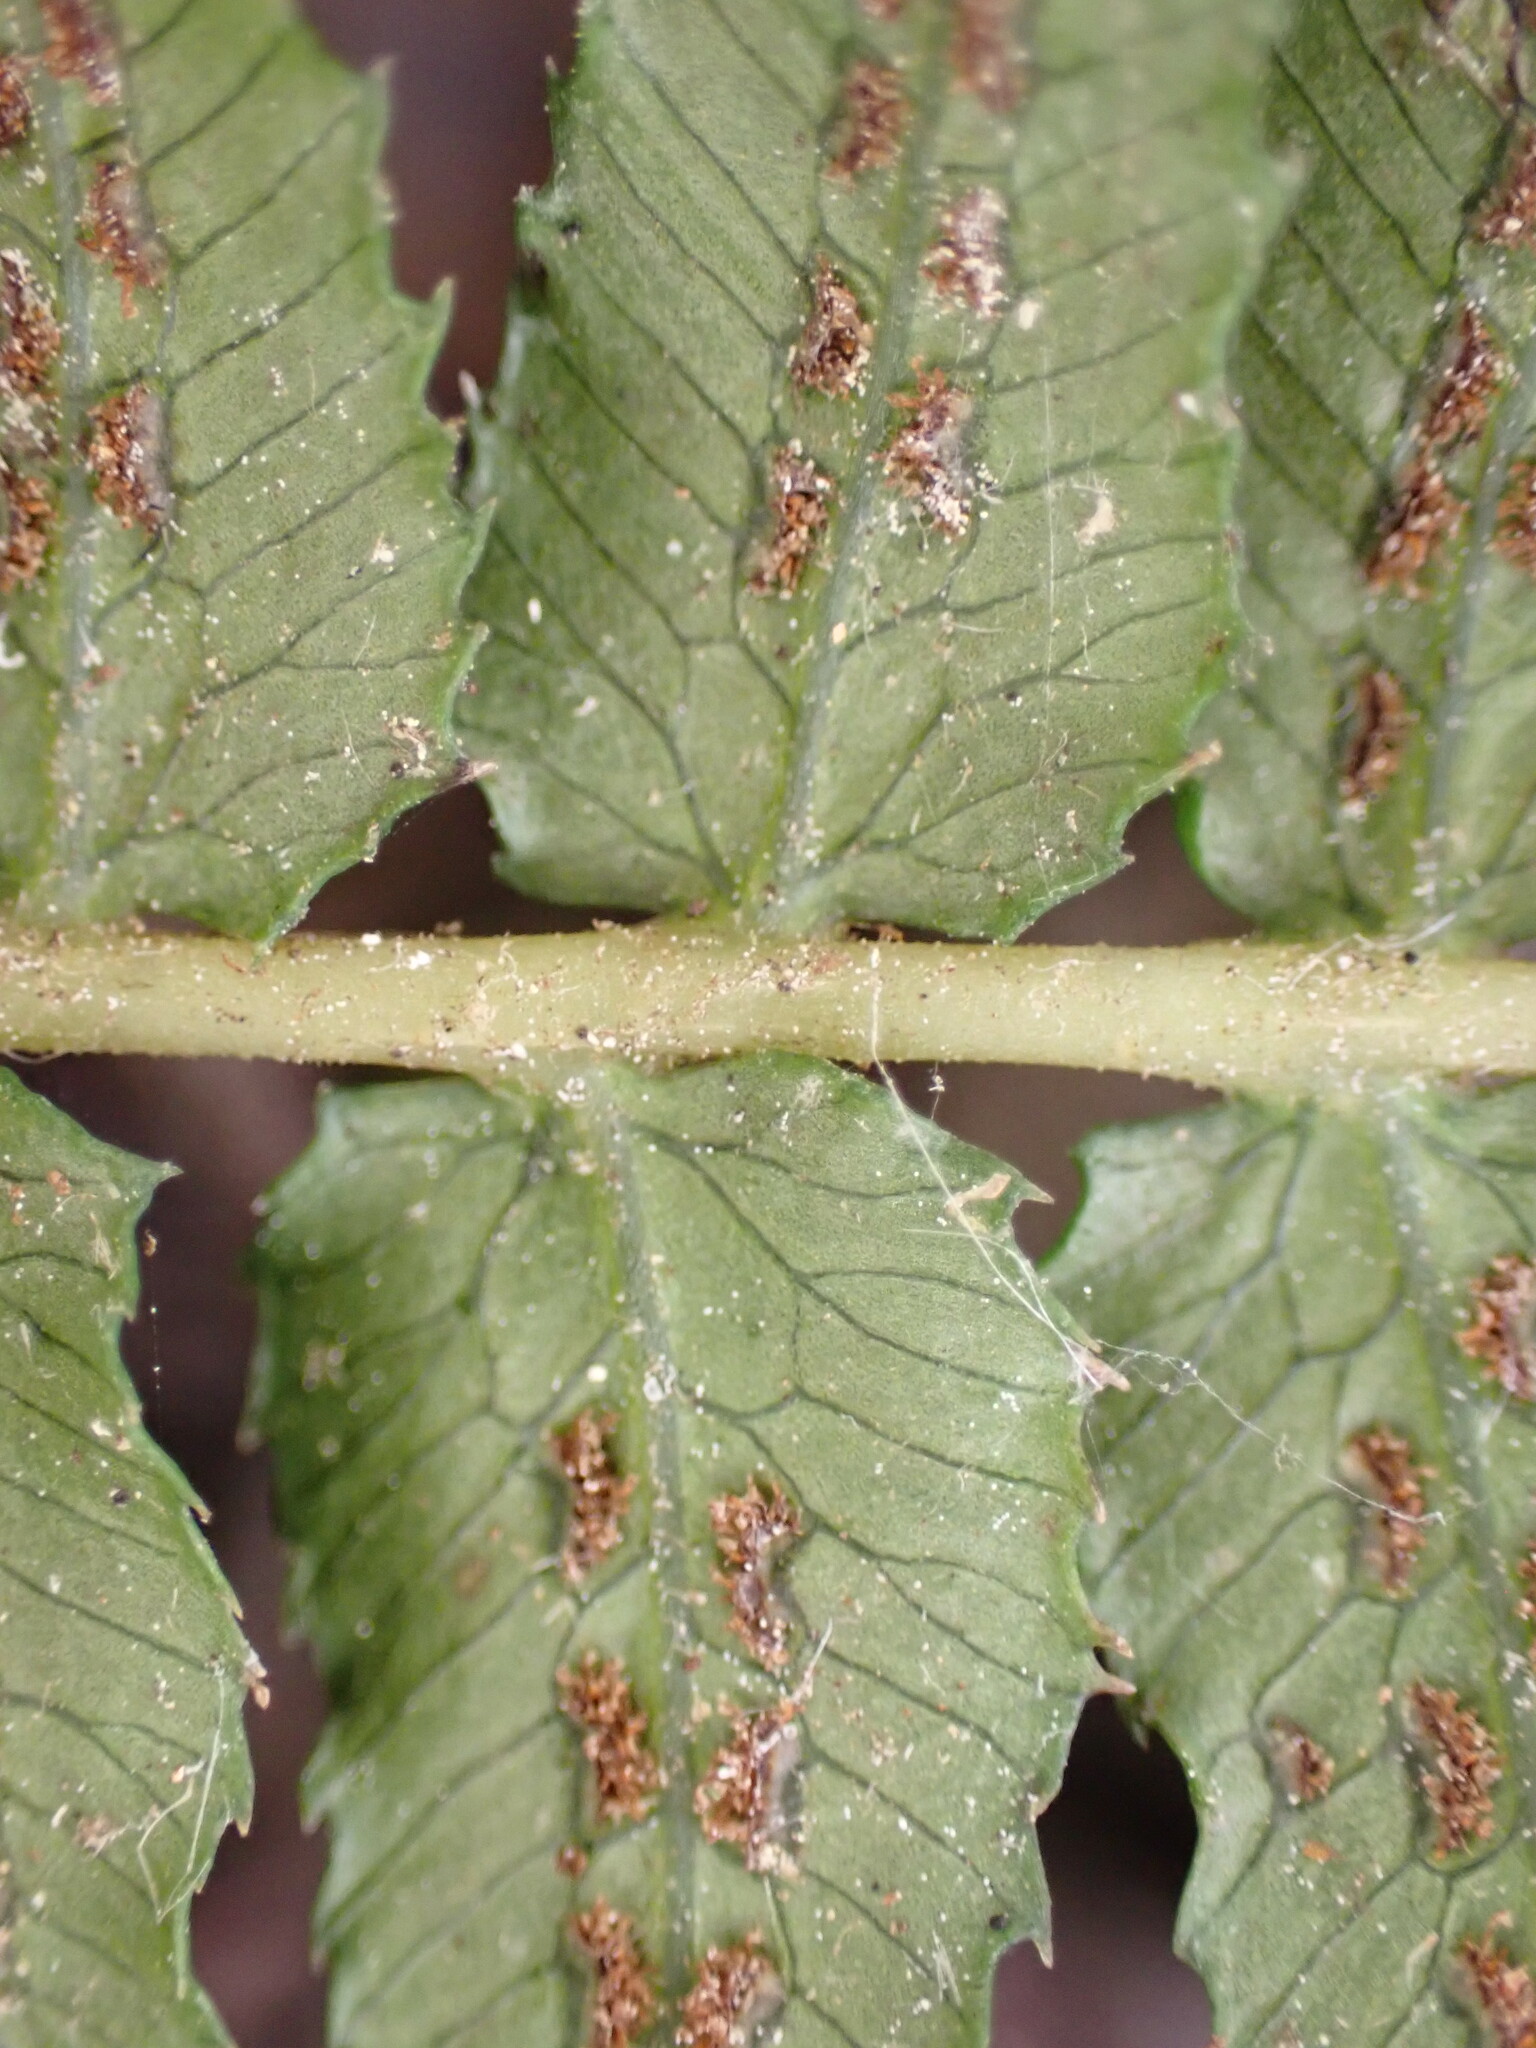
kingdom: Plantae
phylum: Tracheophyta
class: Polypodiopsida
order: Polypodiales
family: Blechnaceae
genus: Doodia
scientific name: Doodia australis
